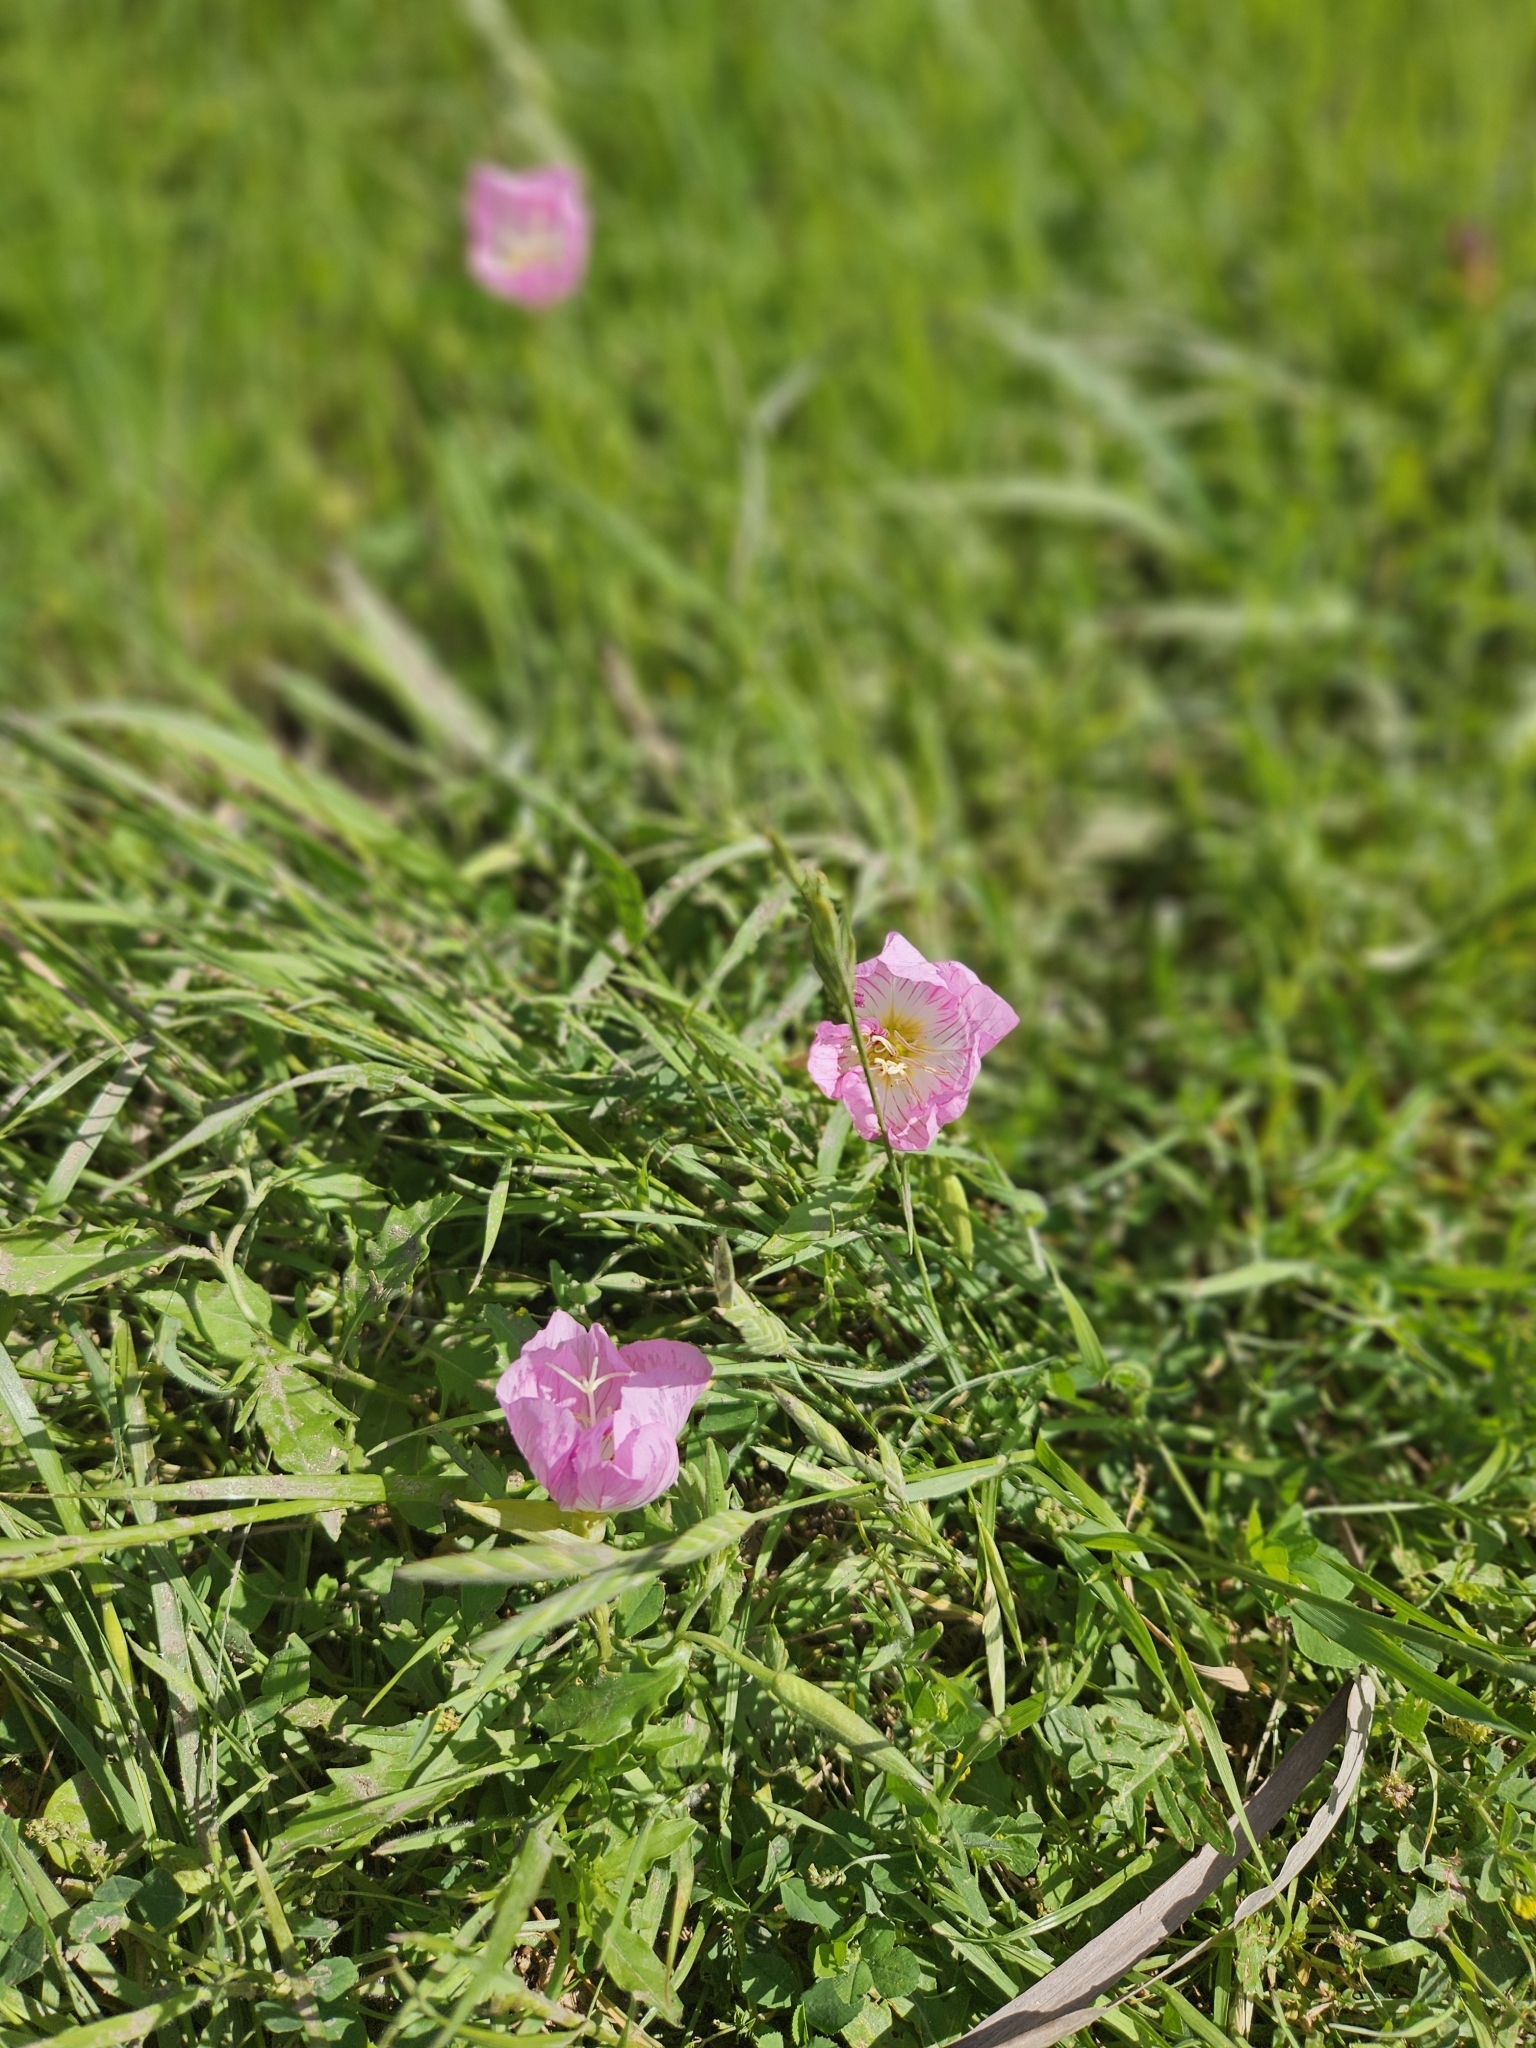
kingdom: Plantae
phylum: Tracheophyta
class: Magnoliopsida
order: Myrtales
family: Onagraceae
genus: Oenothera
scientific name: Oenothera speciosa
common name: White evening-primrose
